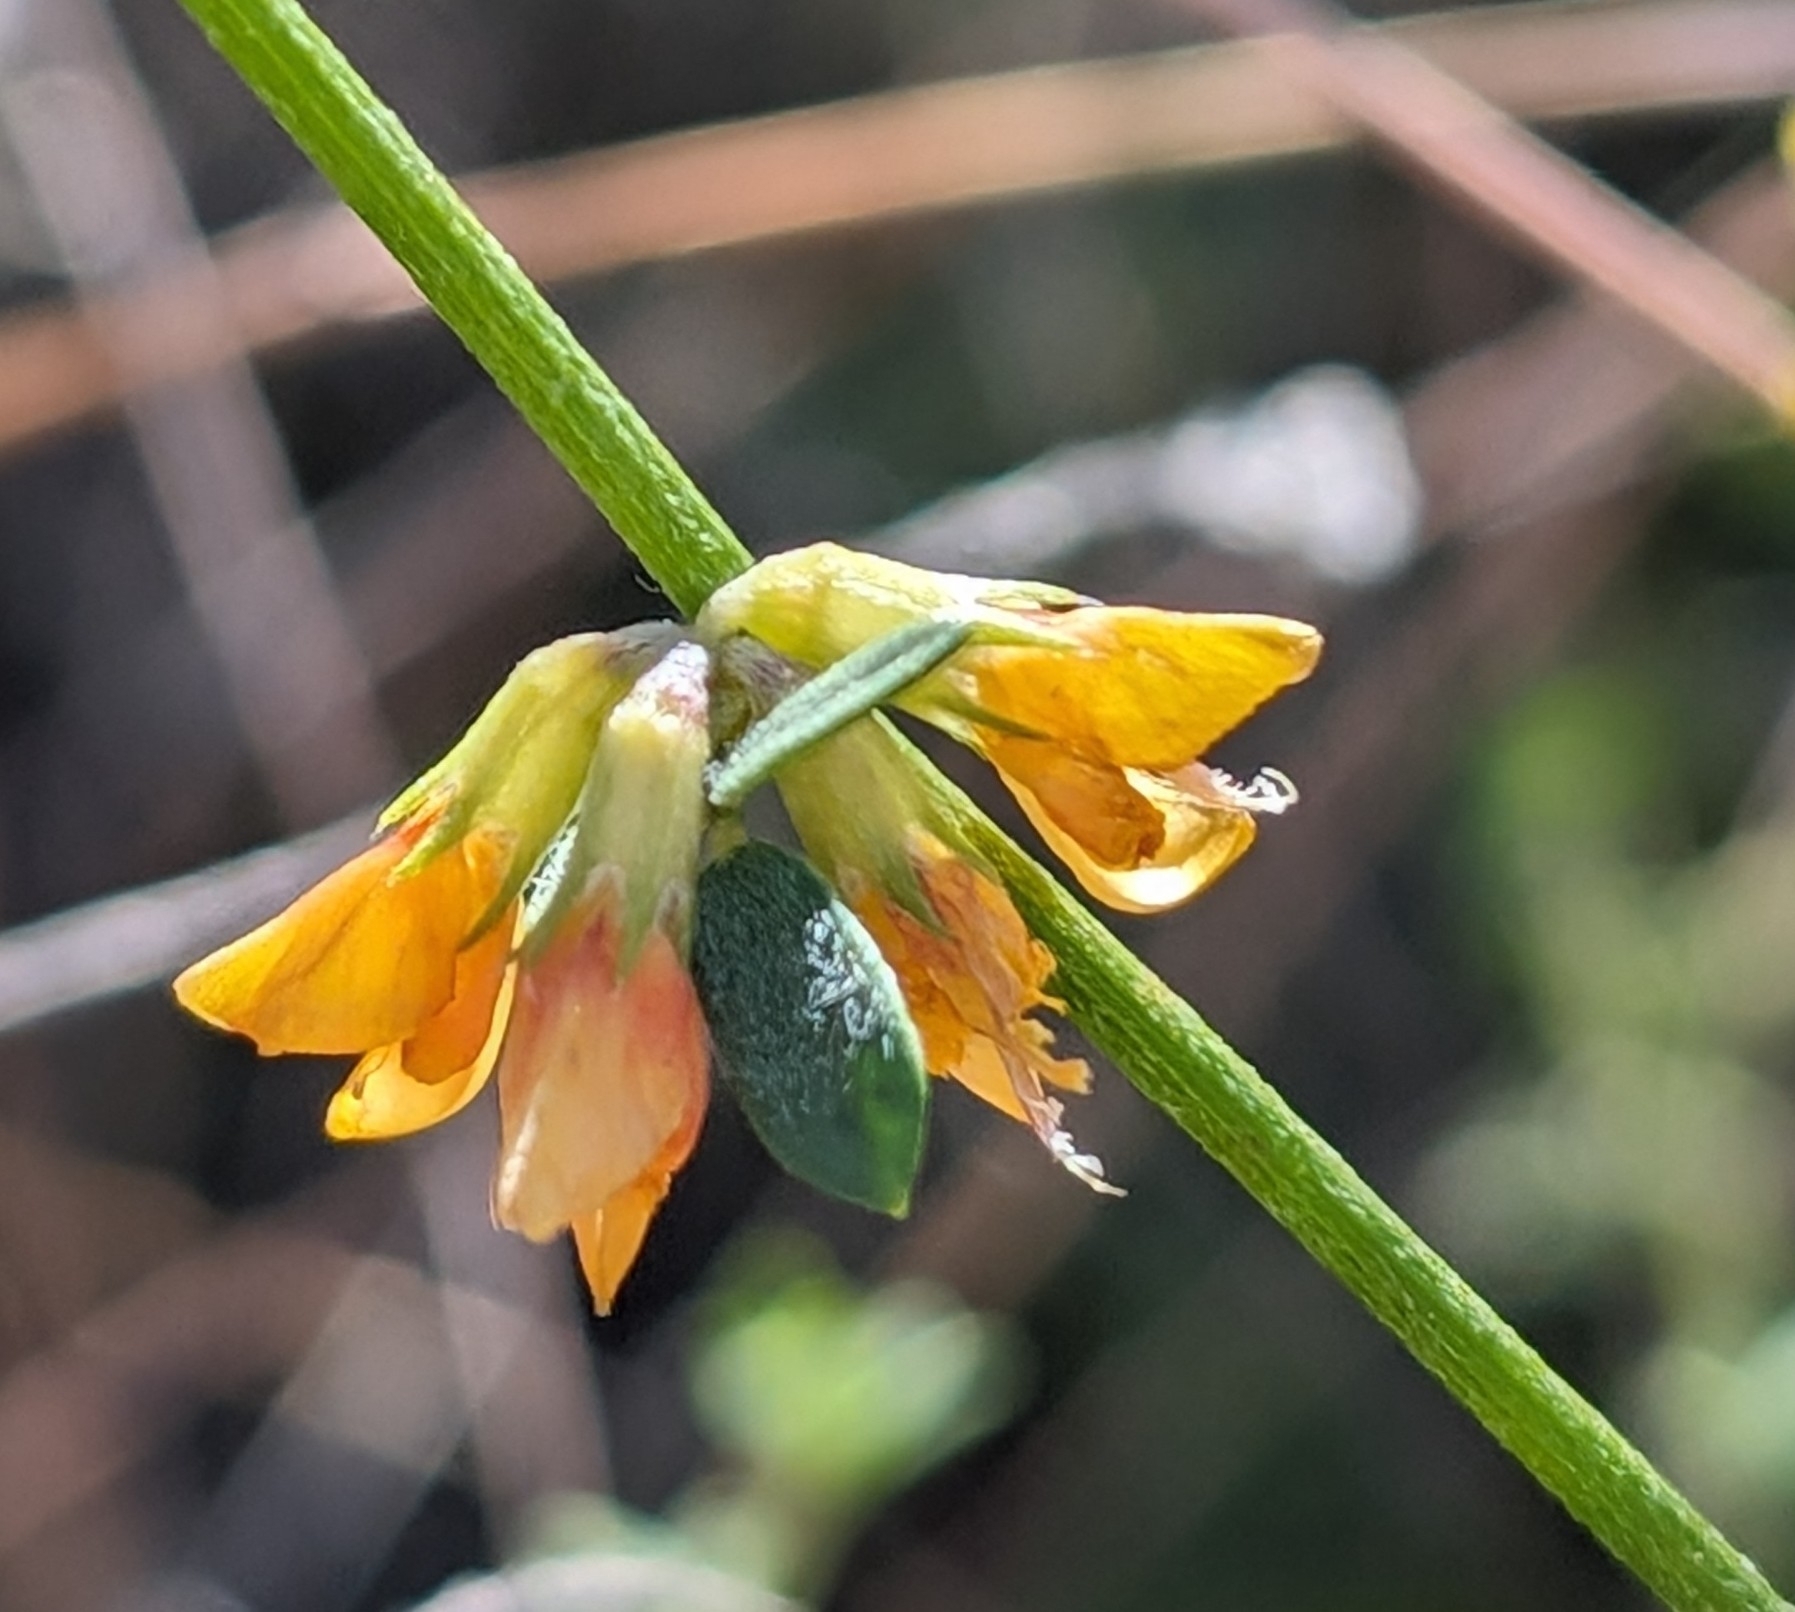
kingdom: Plantae
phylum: Tracheophyta
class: Magnoliopsida
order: Fabales
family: Fabaceae
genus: Acmispon
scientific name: Acmispon glaber
